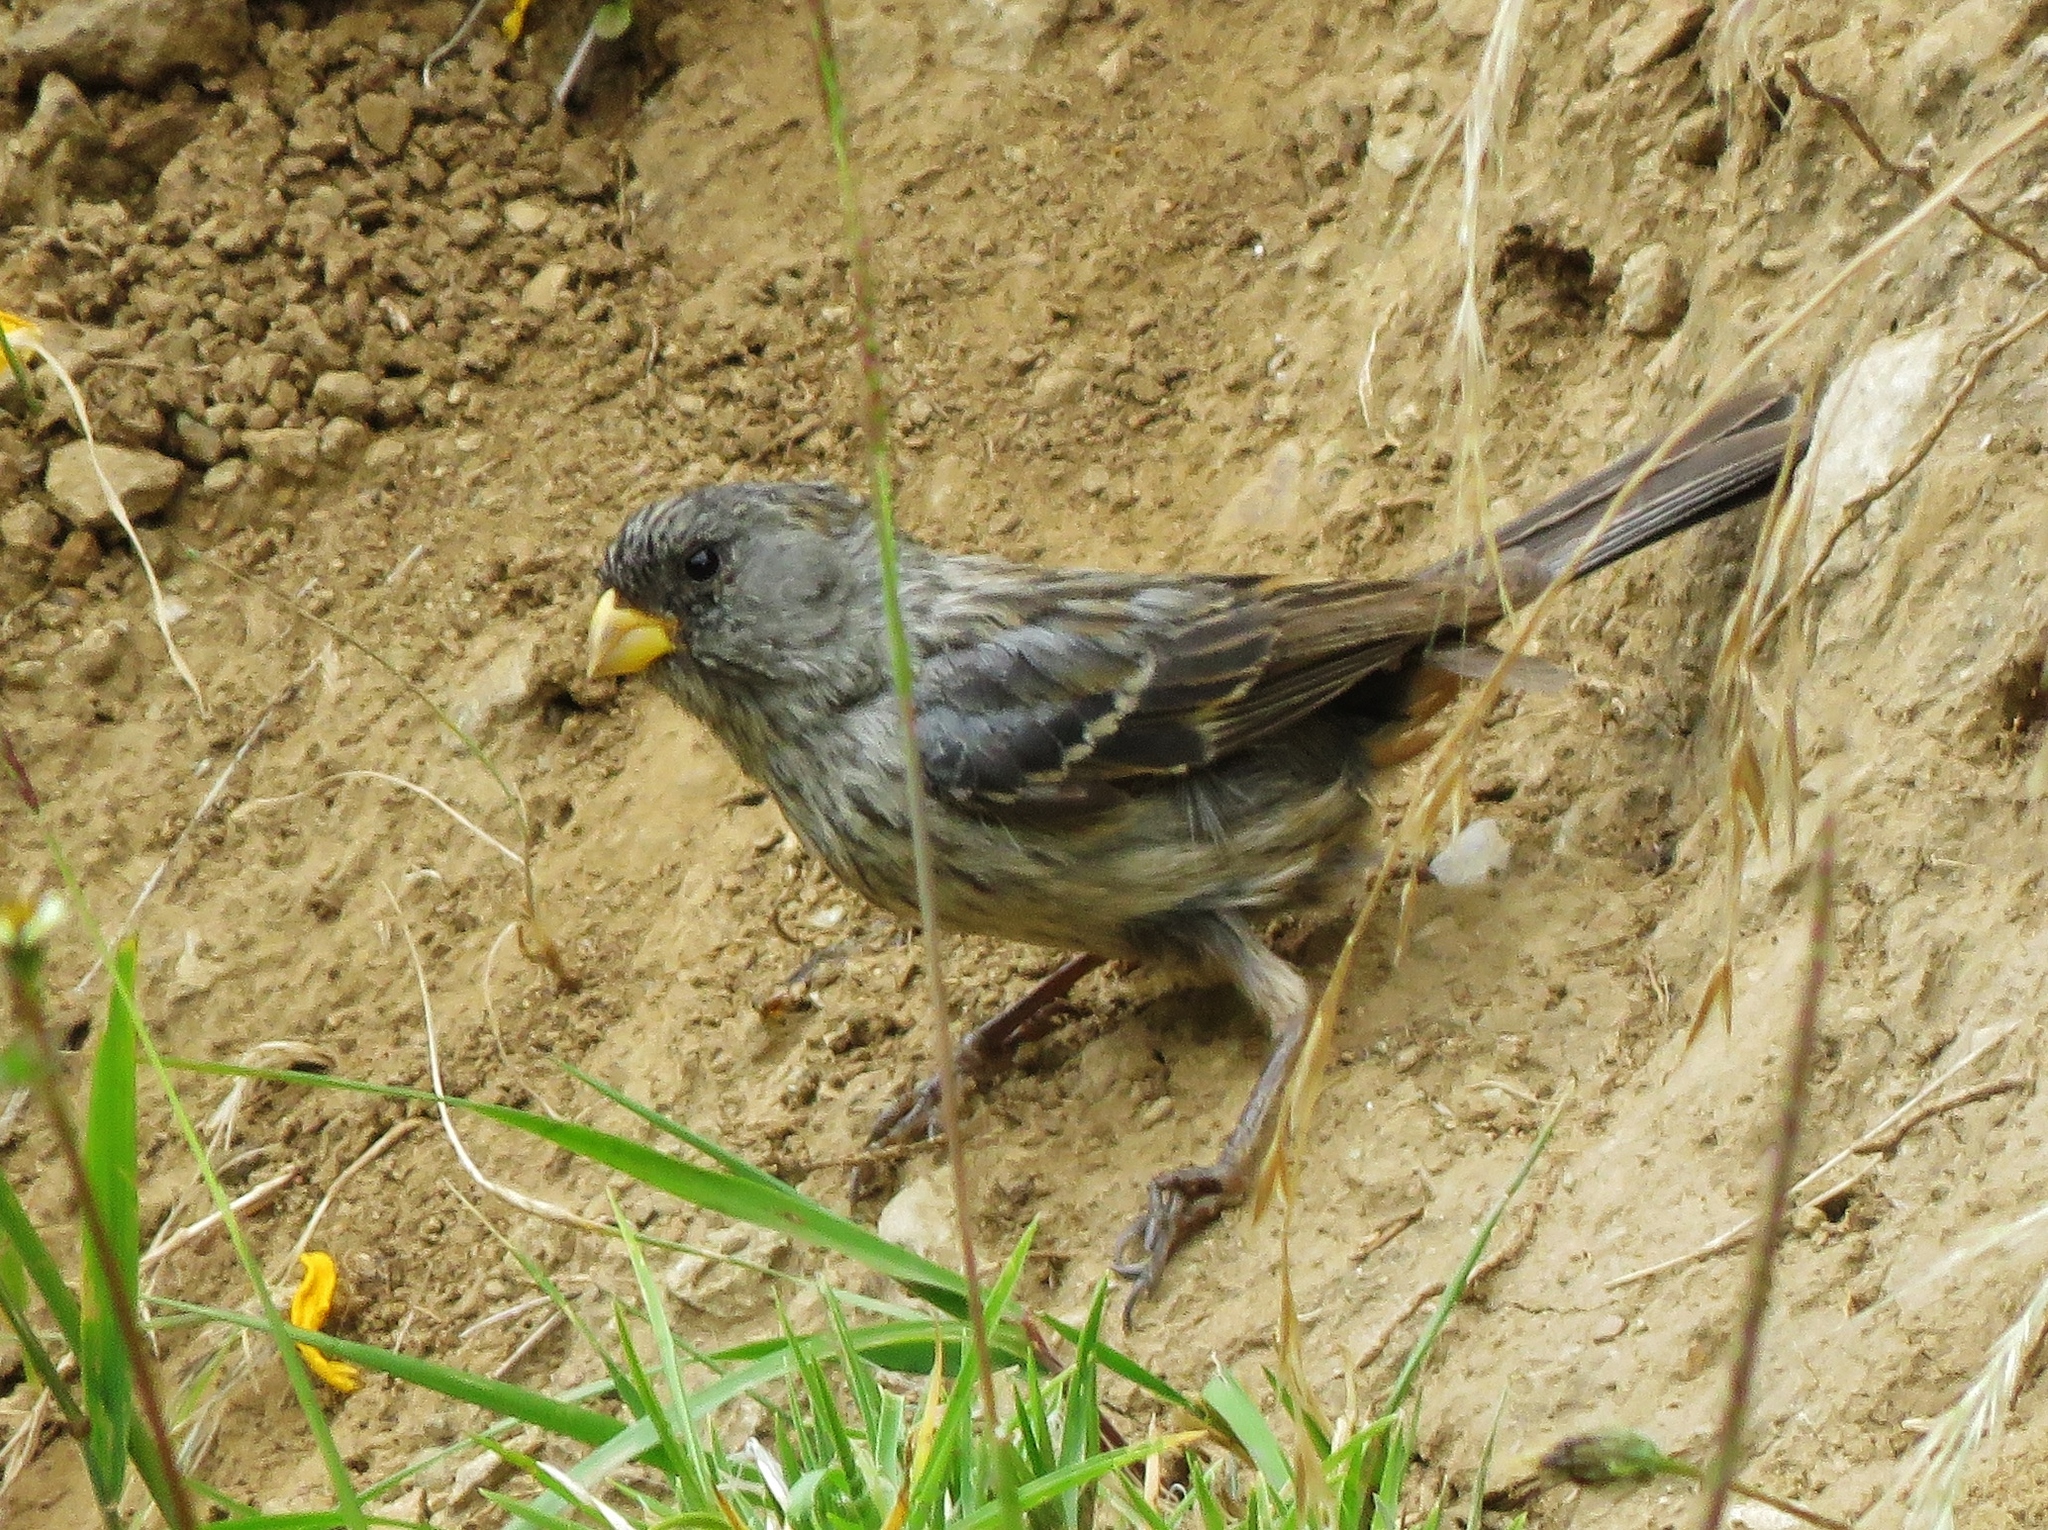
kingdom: Animalia
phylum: Chordata
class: Aves
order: Passeriformes
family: Thraupidae
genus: Catamenia
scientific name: Catamenia analis
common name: Band-tailed seedeater
